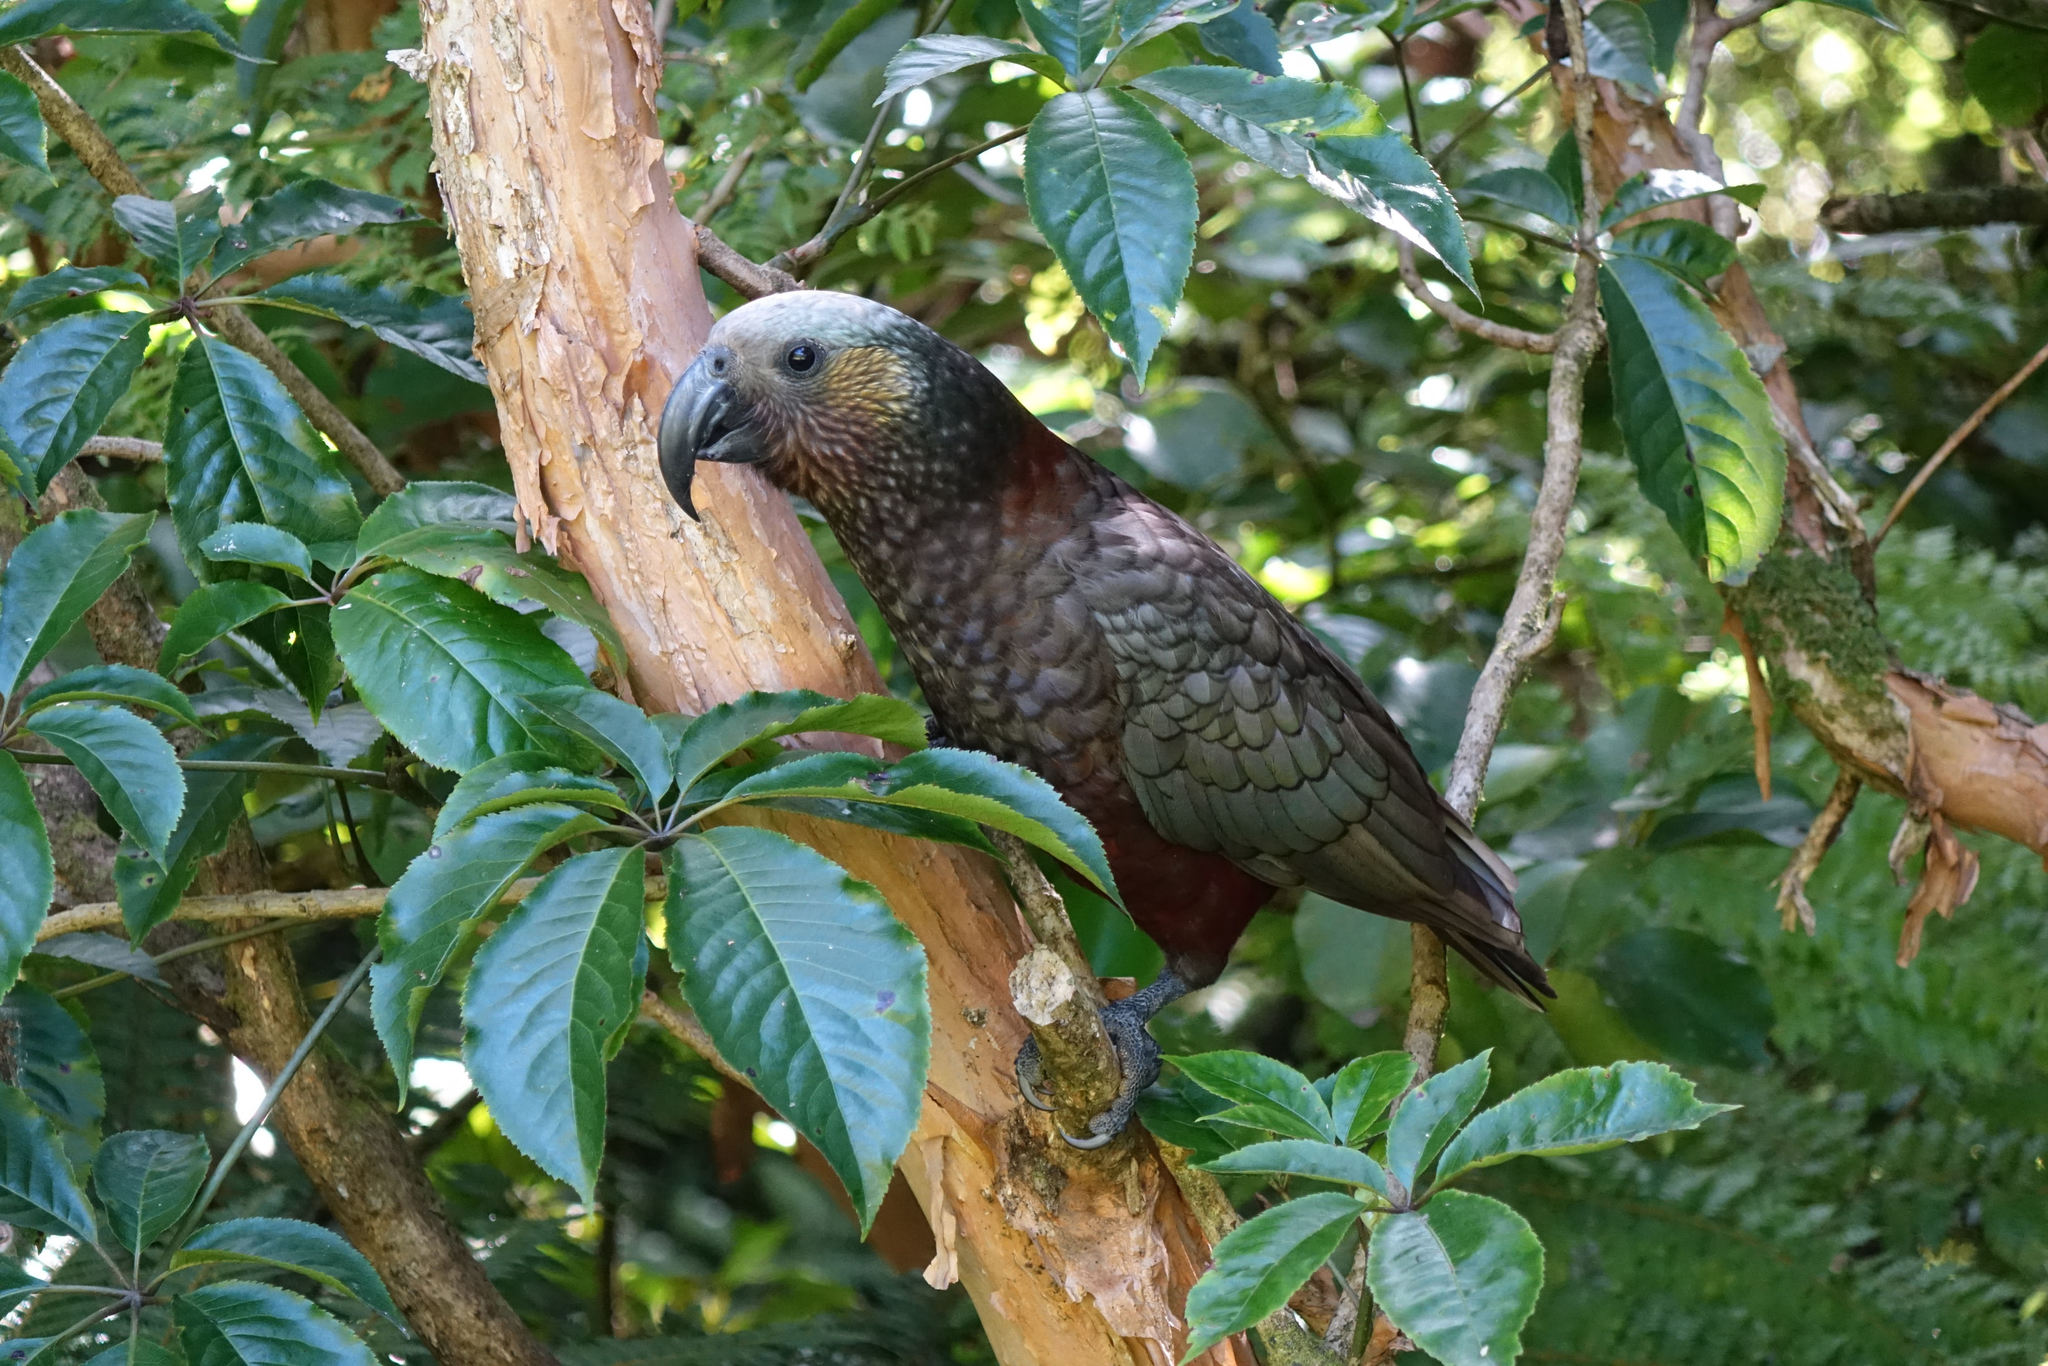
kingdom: Animalia
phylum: Chordata
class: Aves
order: Psittaciformes
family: Psittacidae
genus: Nestor
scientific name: Nestor meridionalis
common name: New zealand kaka
